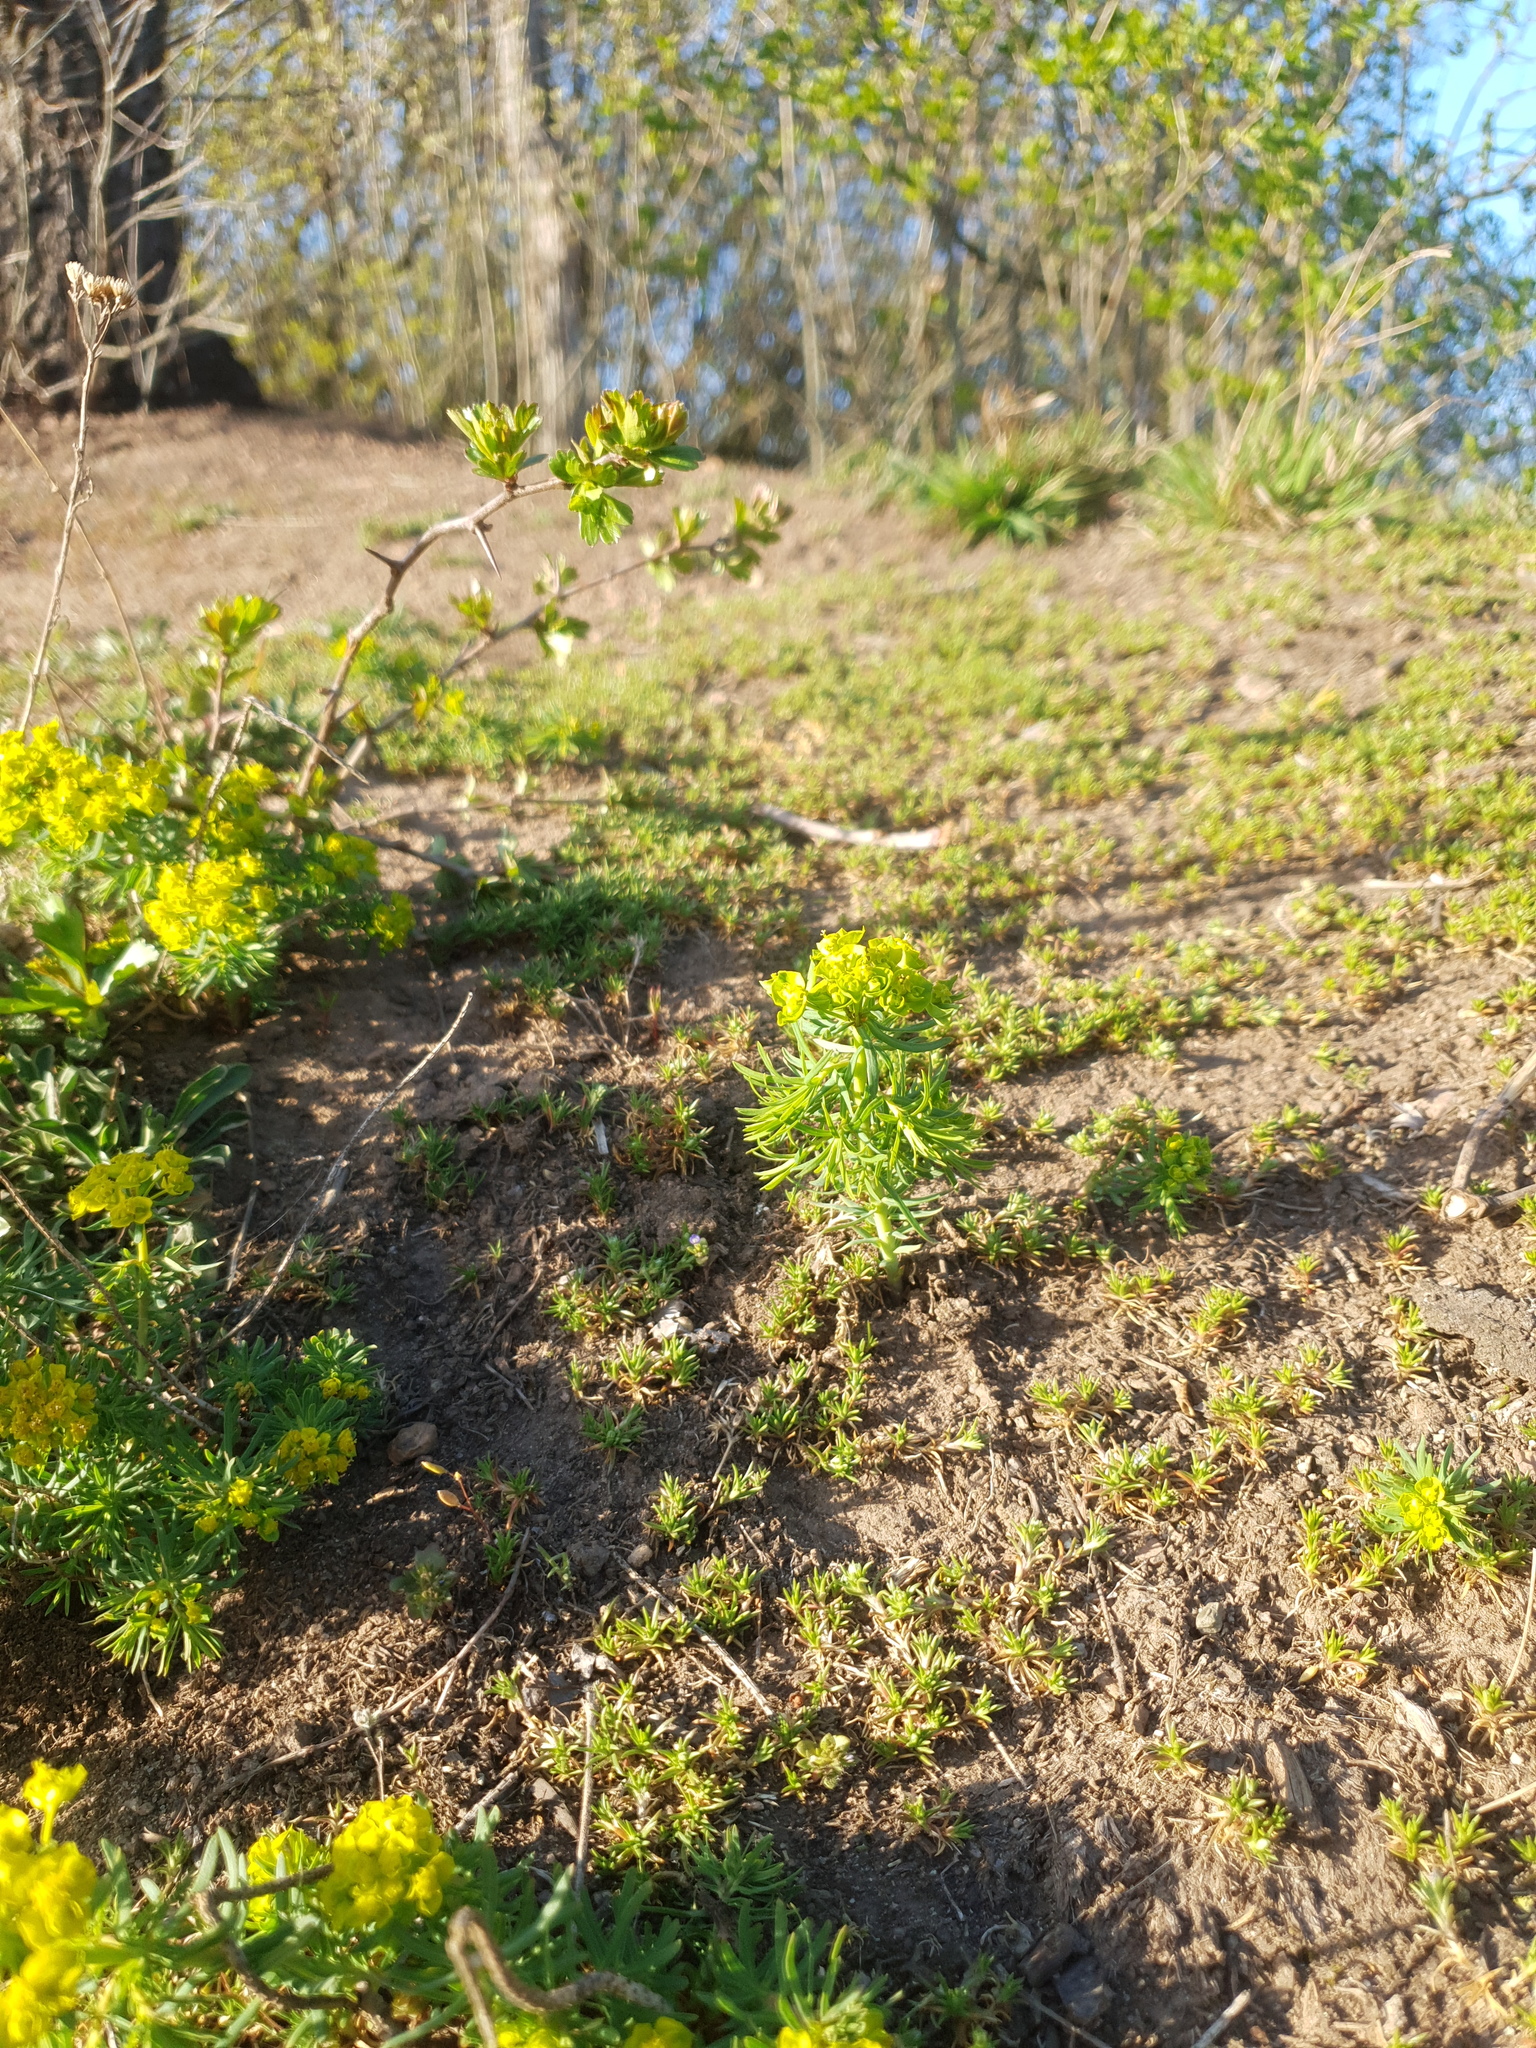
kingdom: Plantae
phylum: Tracheophyta
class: Magnoliopsida
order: Malpighiales
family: Euphorbiaceae
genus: Euphorbia
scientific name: Euphorbia cyparissias
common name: Cypress spurge
